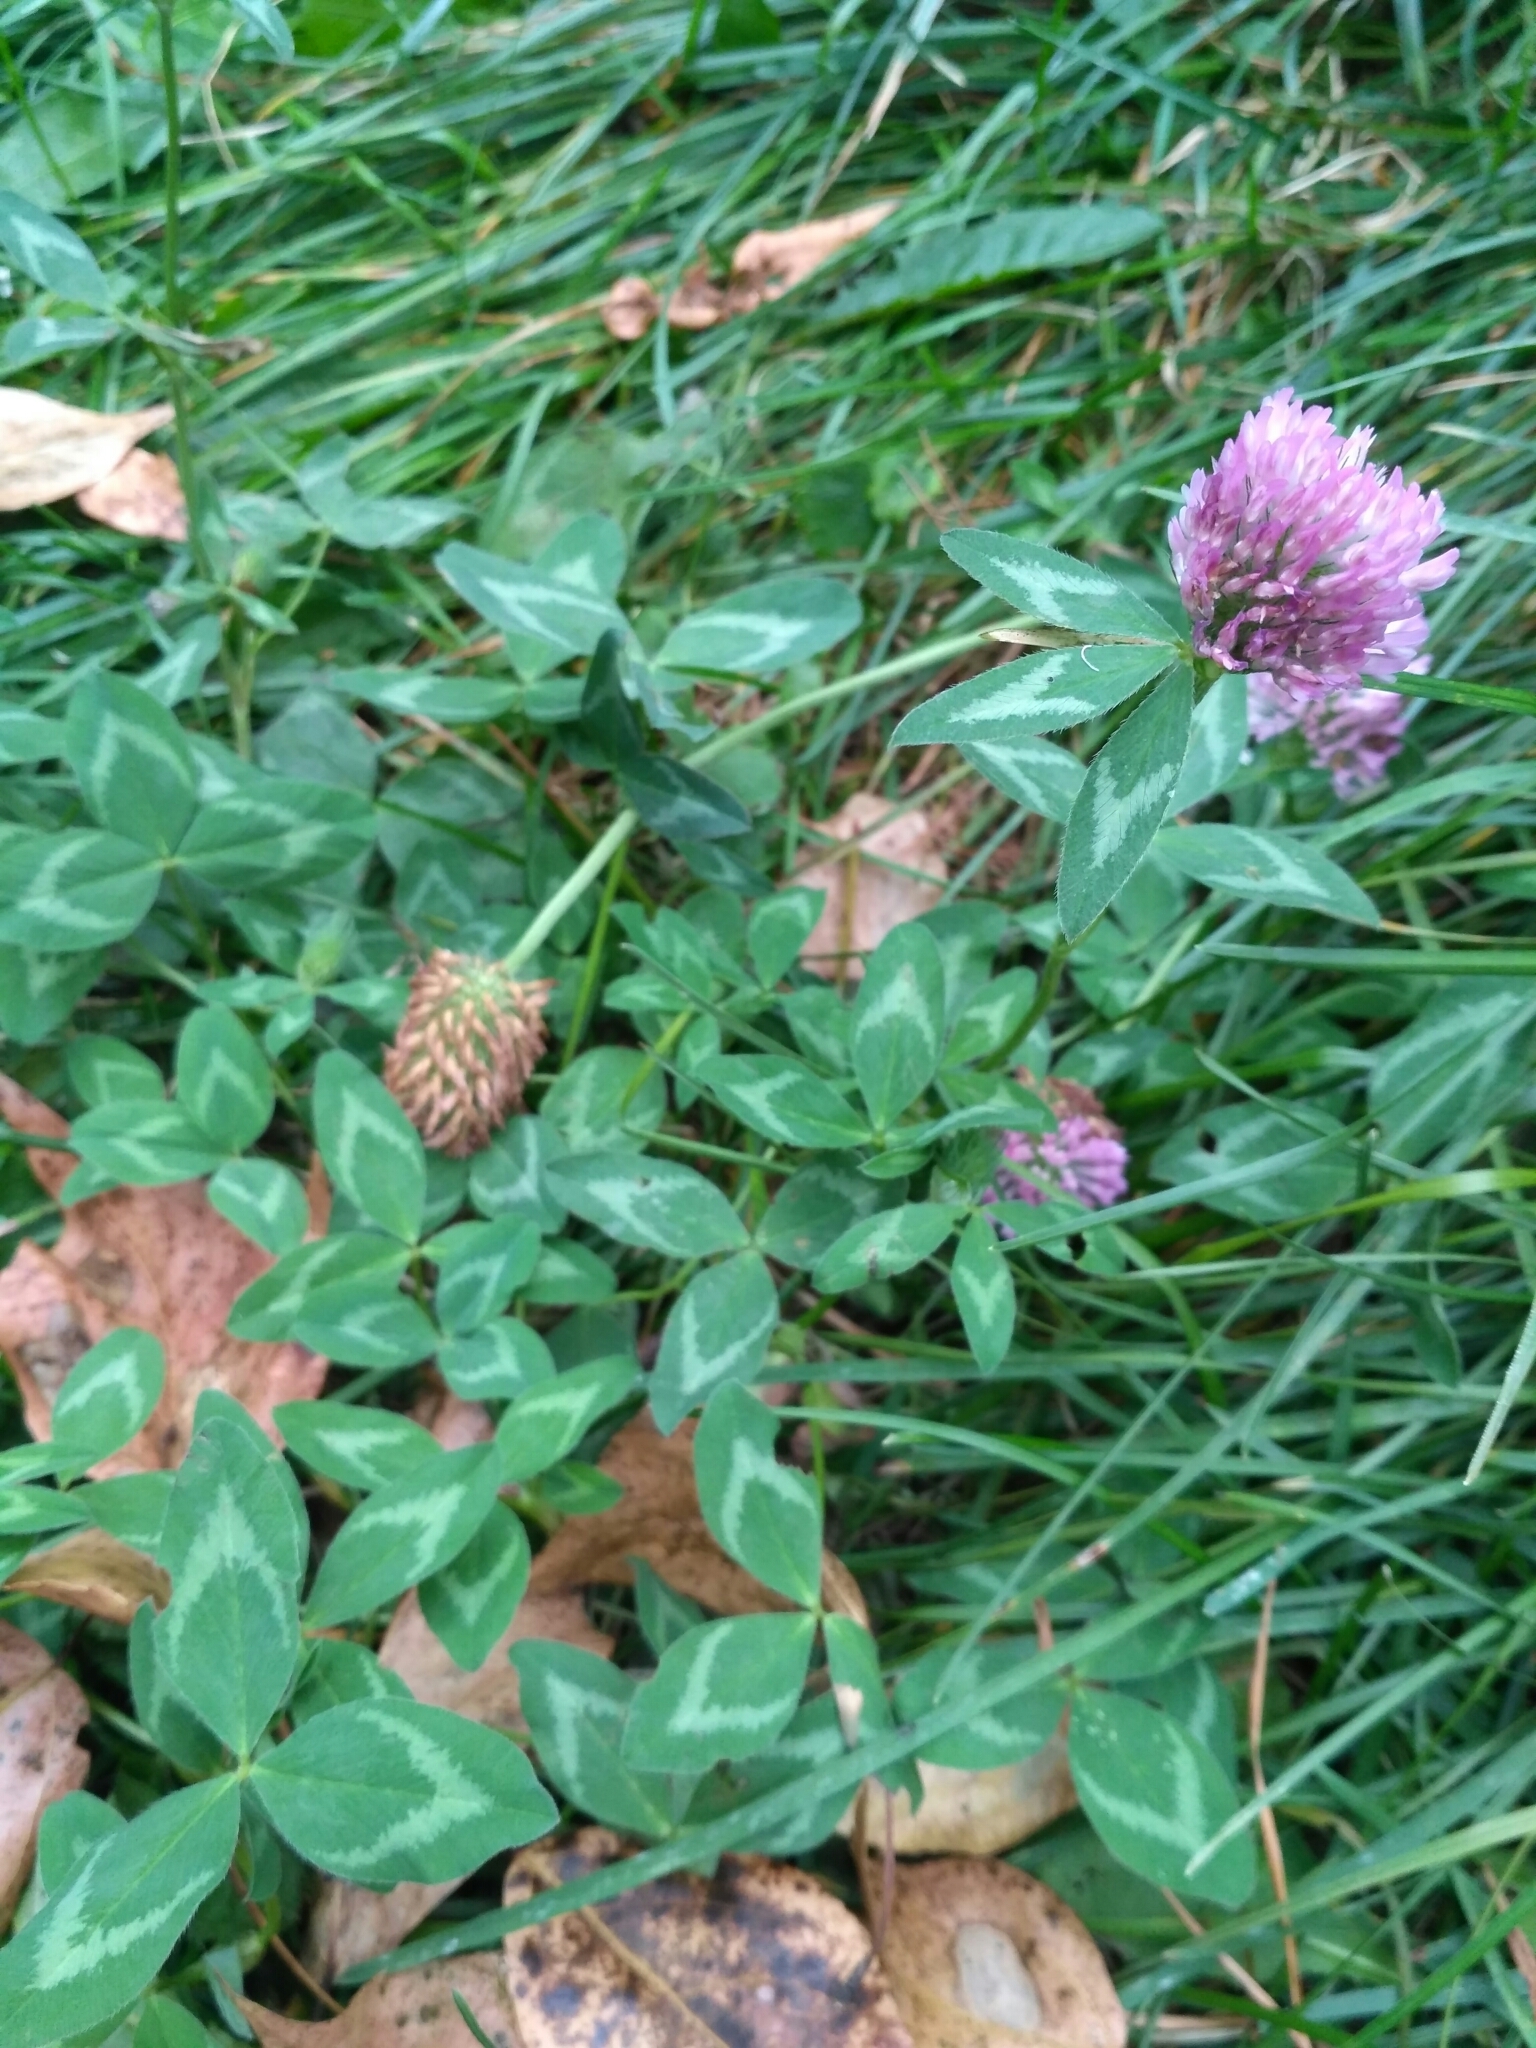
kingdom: Plantae
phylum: Tracheophyta
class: Magnoliopsida
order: Fabales
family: Fabaceae
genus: Trifolium
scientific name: Trifolium pratense
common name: Red clover
